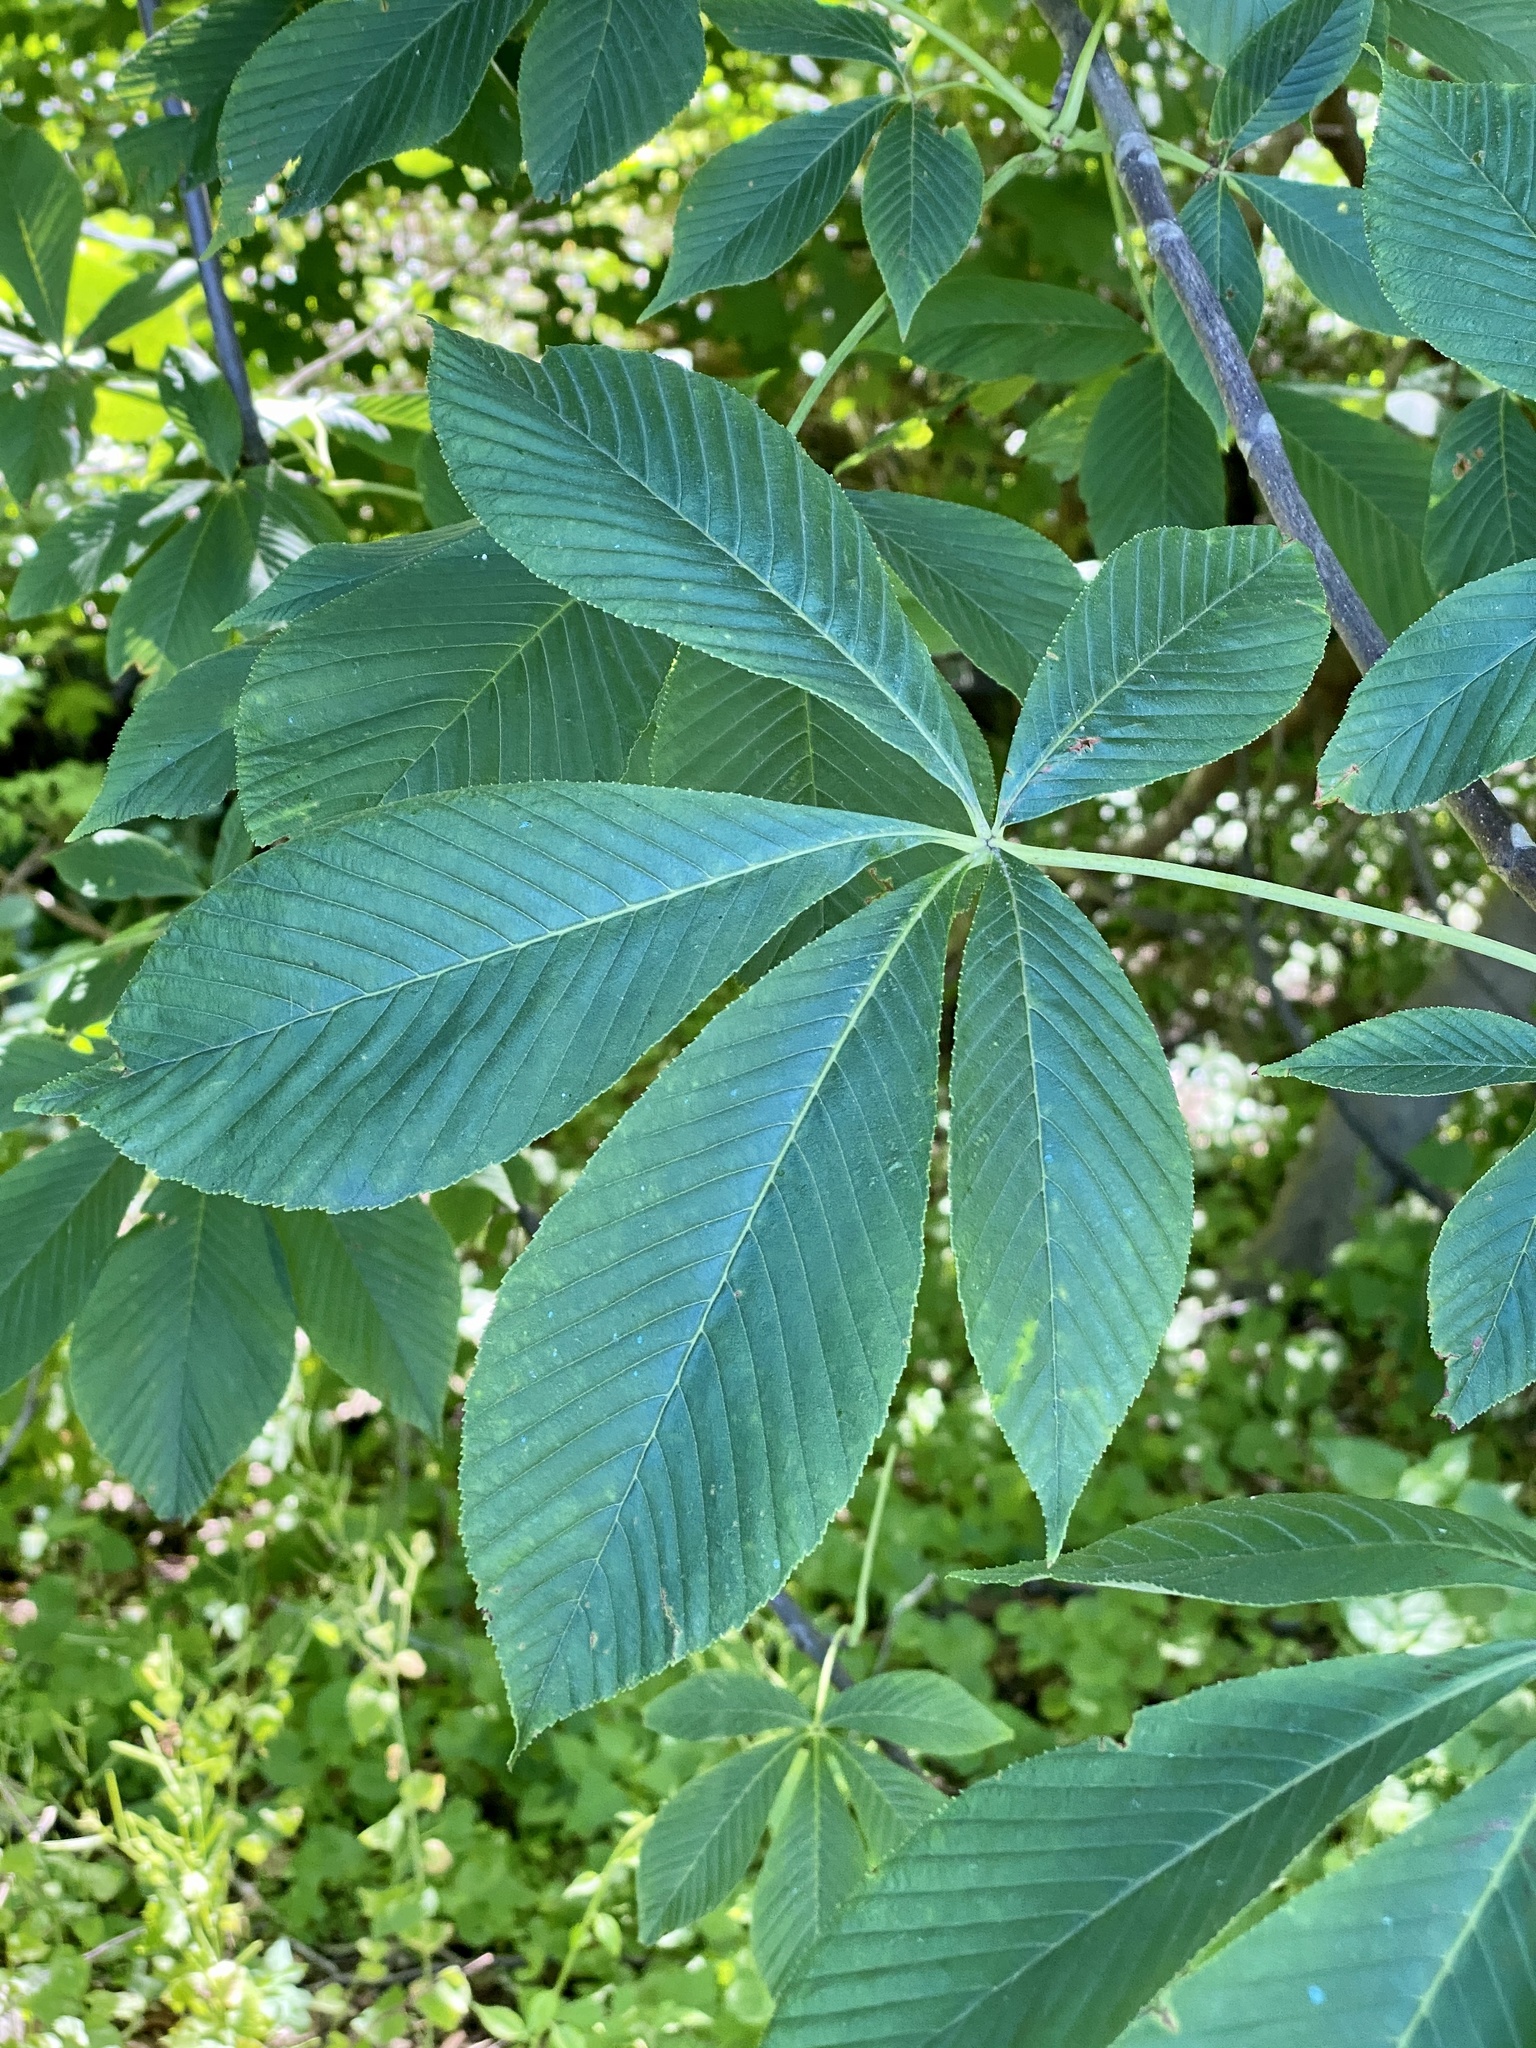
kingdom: Plantae
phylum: Tracheophyta
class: Magnoliopsida
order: Sapindales
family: Sapindaceae
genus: Aesculus
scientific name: Aesculus flava
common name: Yellow buckeye
